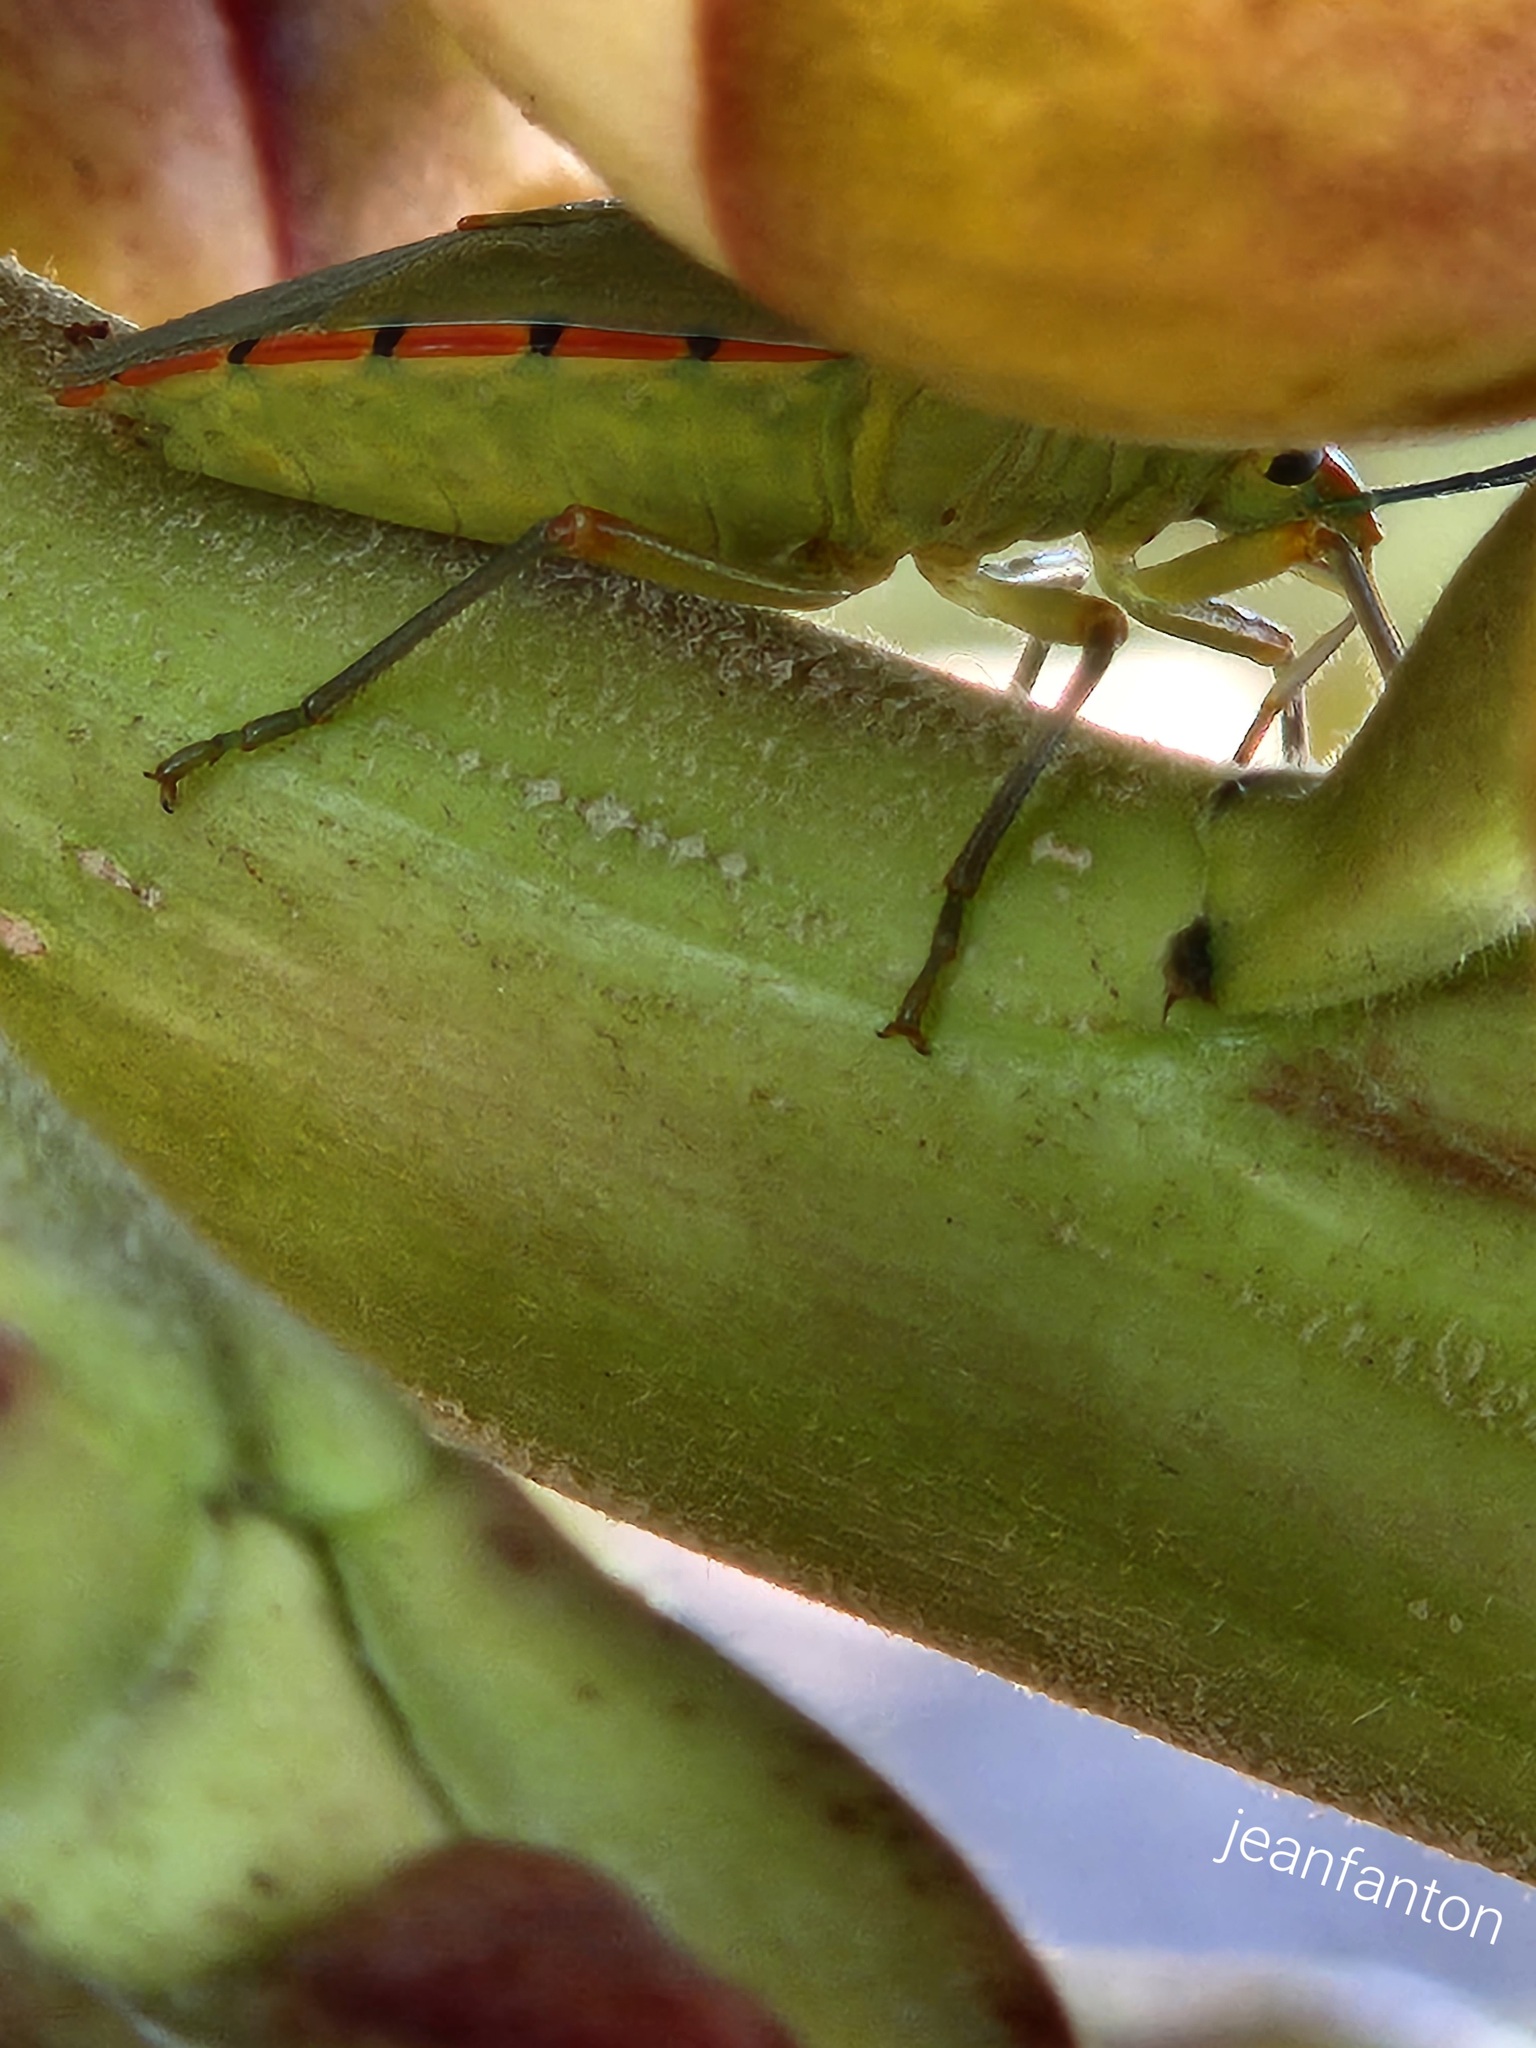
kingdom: Animalia
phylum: Arthropoda
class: Insecta
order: Hemiptera
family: Pentatomidae
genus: Chinavia
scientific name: Chinavia runaspis
